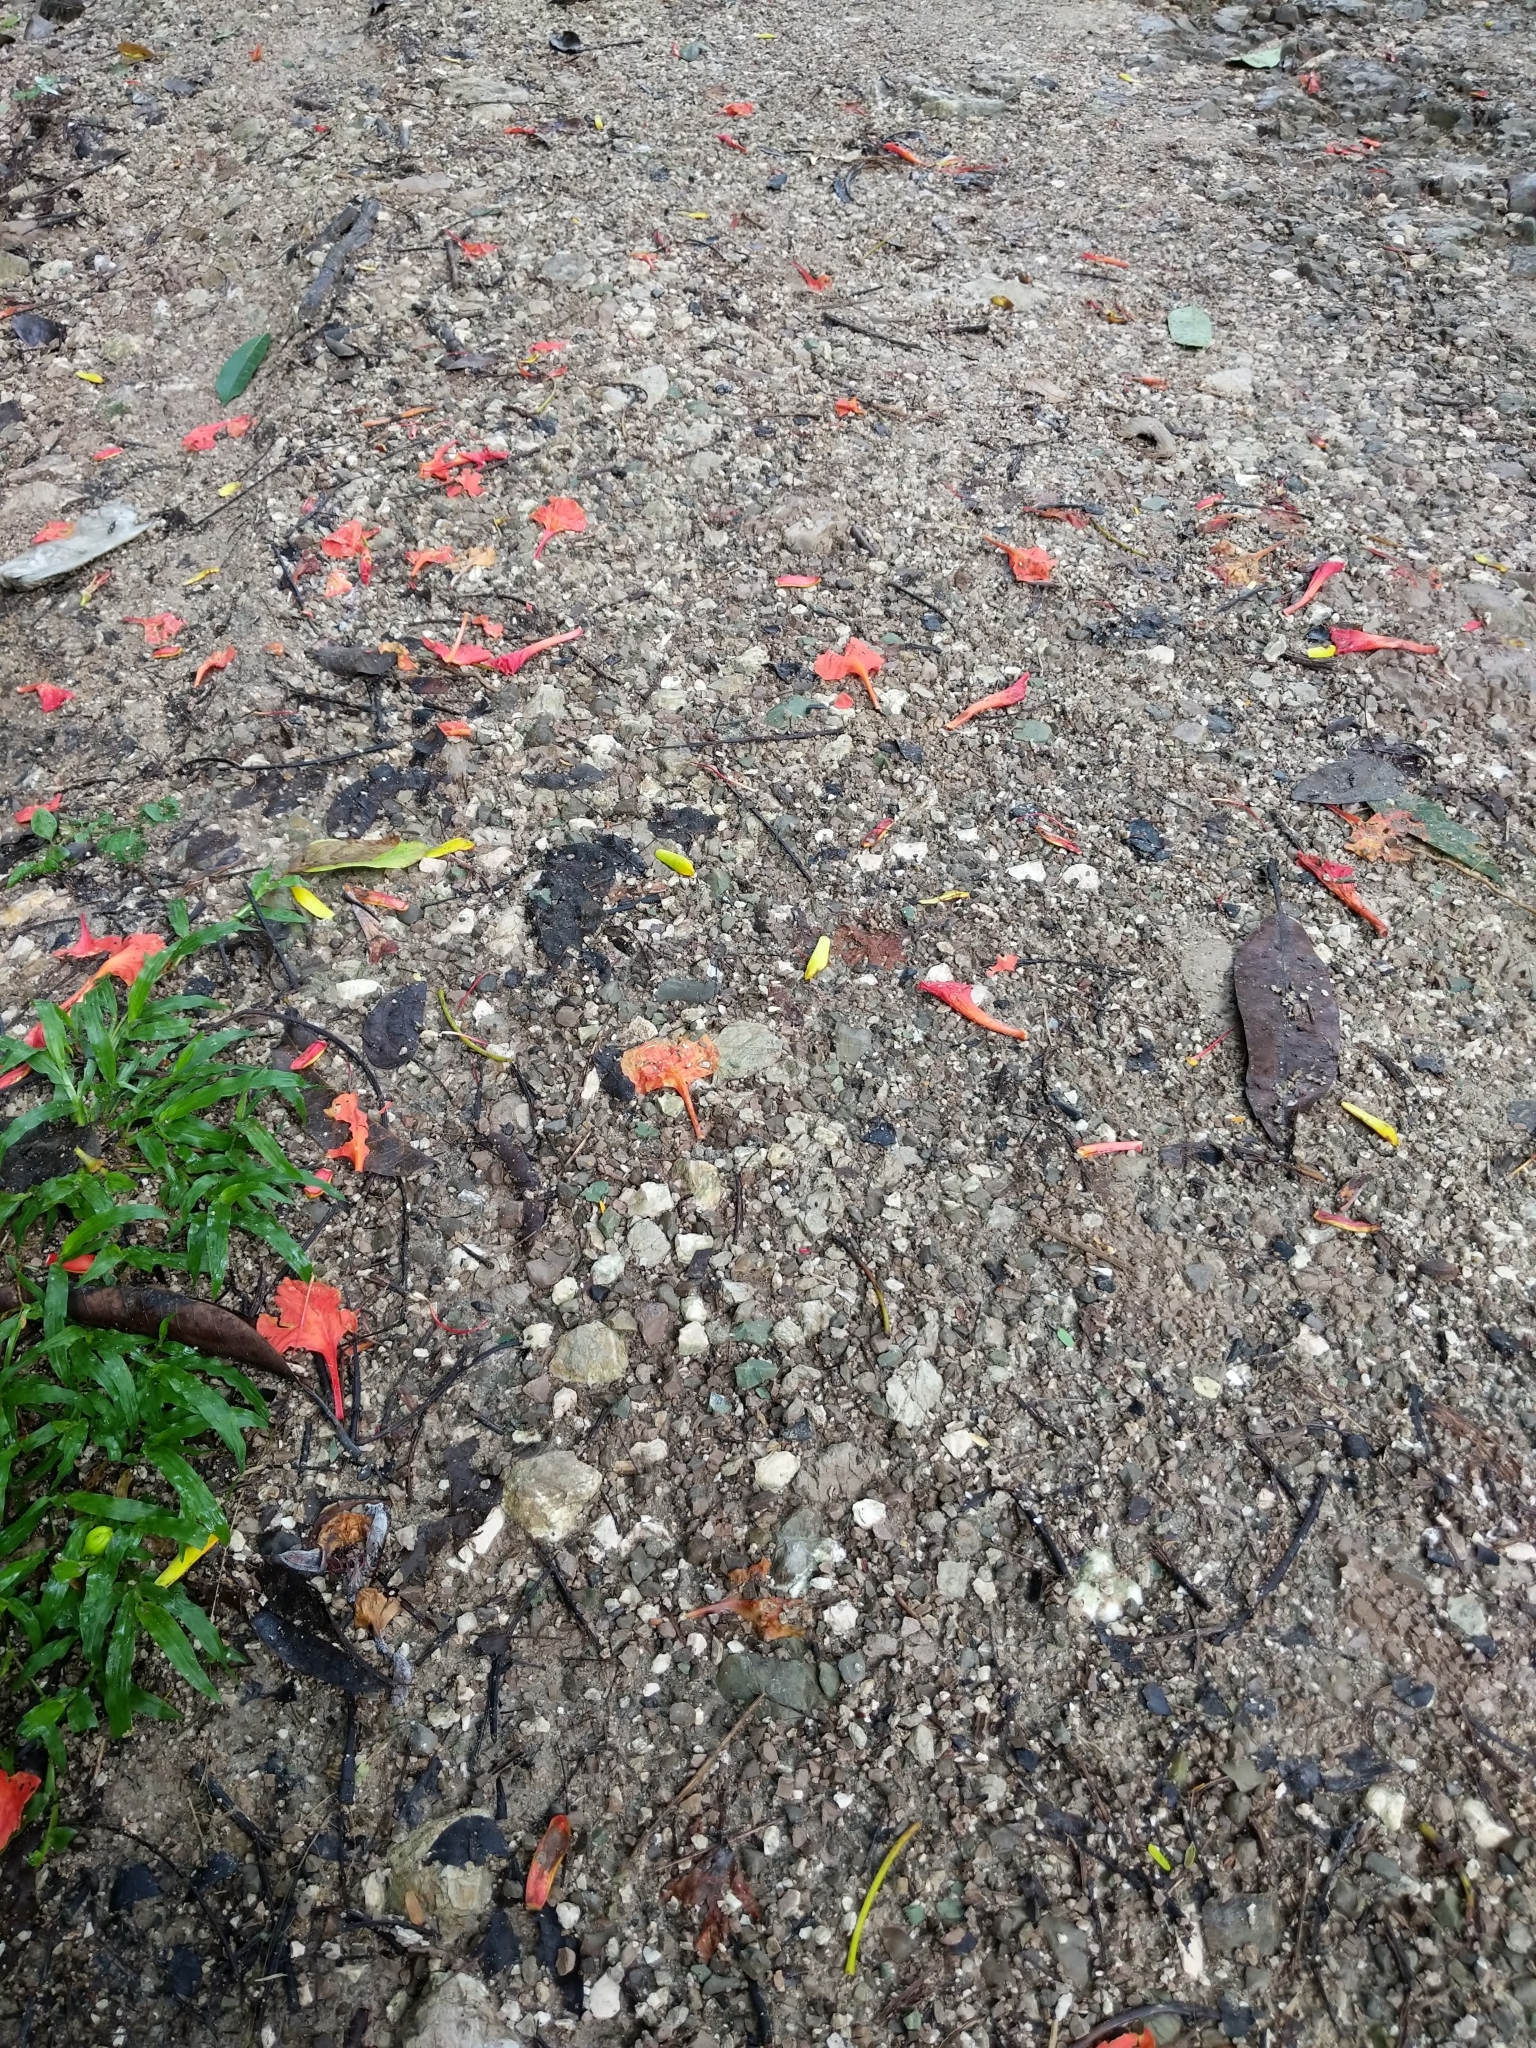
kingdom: Plantae
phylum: Tracheophyta
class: Magnoliopsida
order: Fabales
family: Fabaceae
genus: Delonix
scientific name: Delonix regia
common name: Royal poinciana
